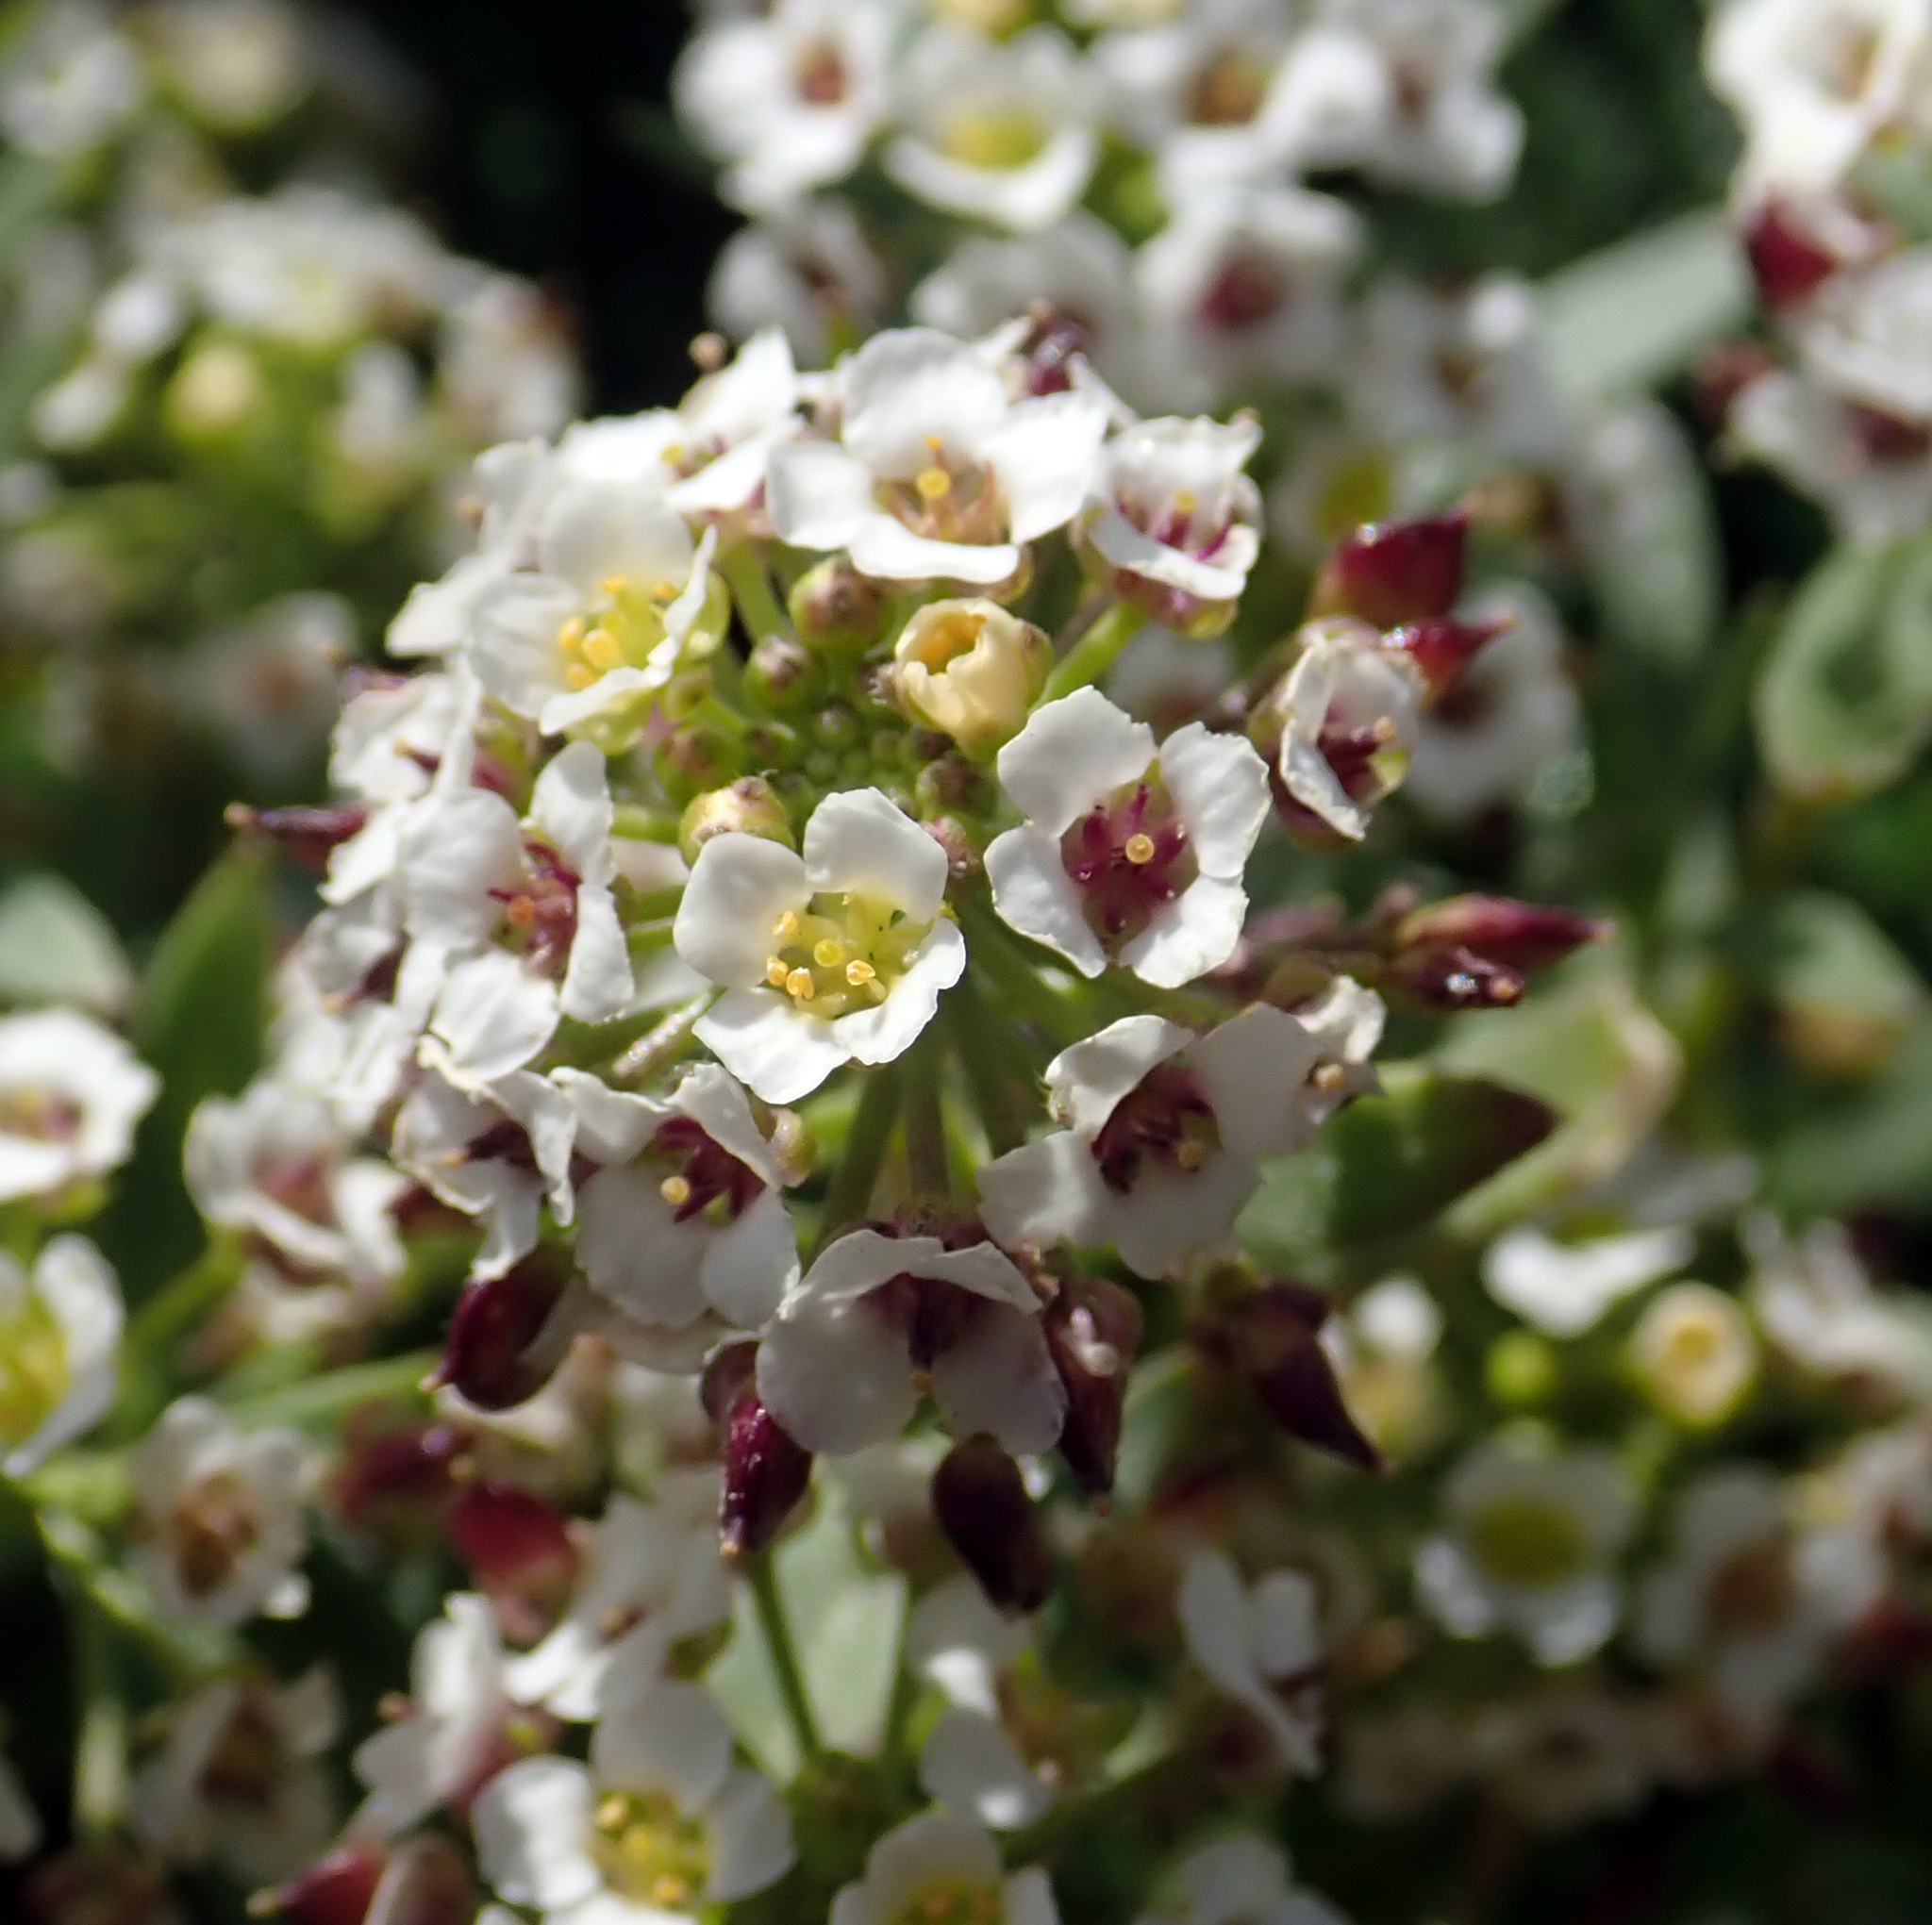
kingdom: Plantae
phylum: Tracheophyta
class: Magnoliopsida
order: Brassicales
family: Brassicaceae
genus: Lobularia
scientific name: Lobularia maritima
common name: Sweet alison
